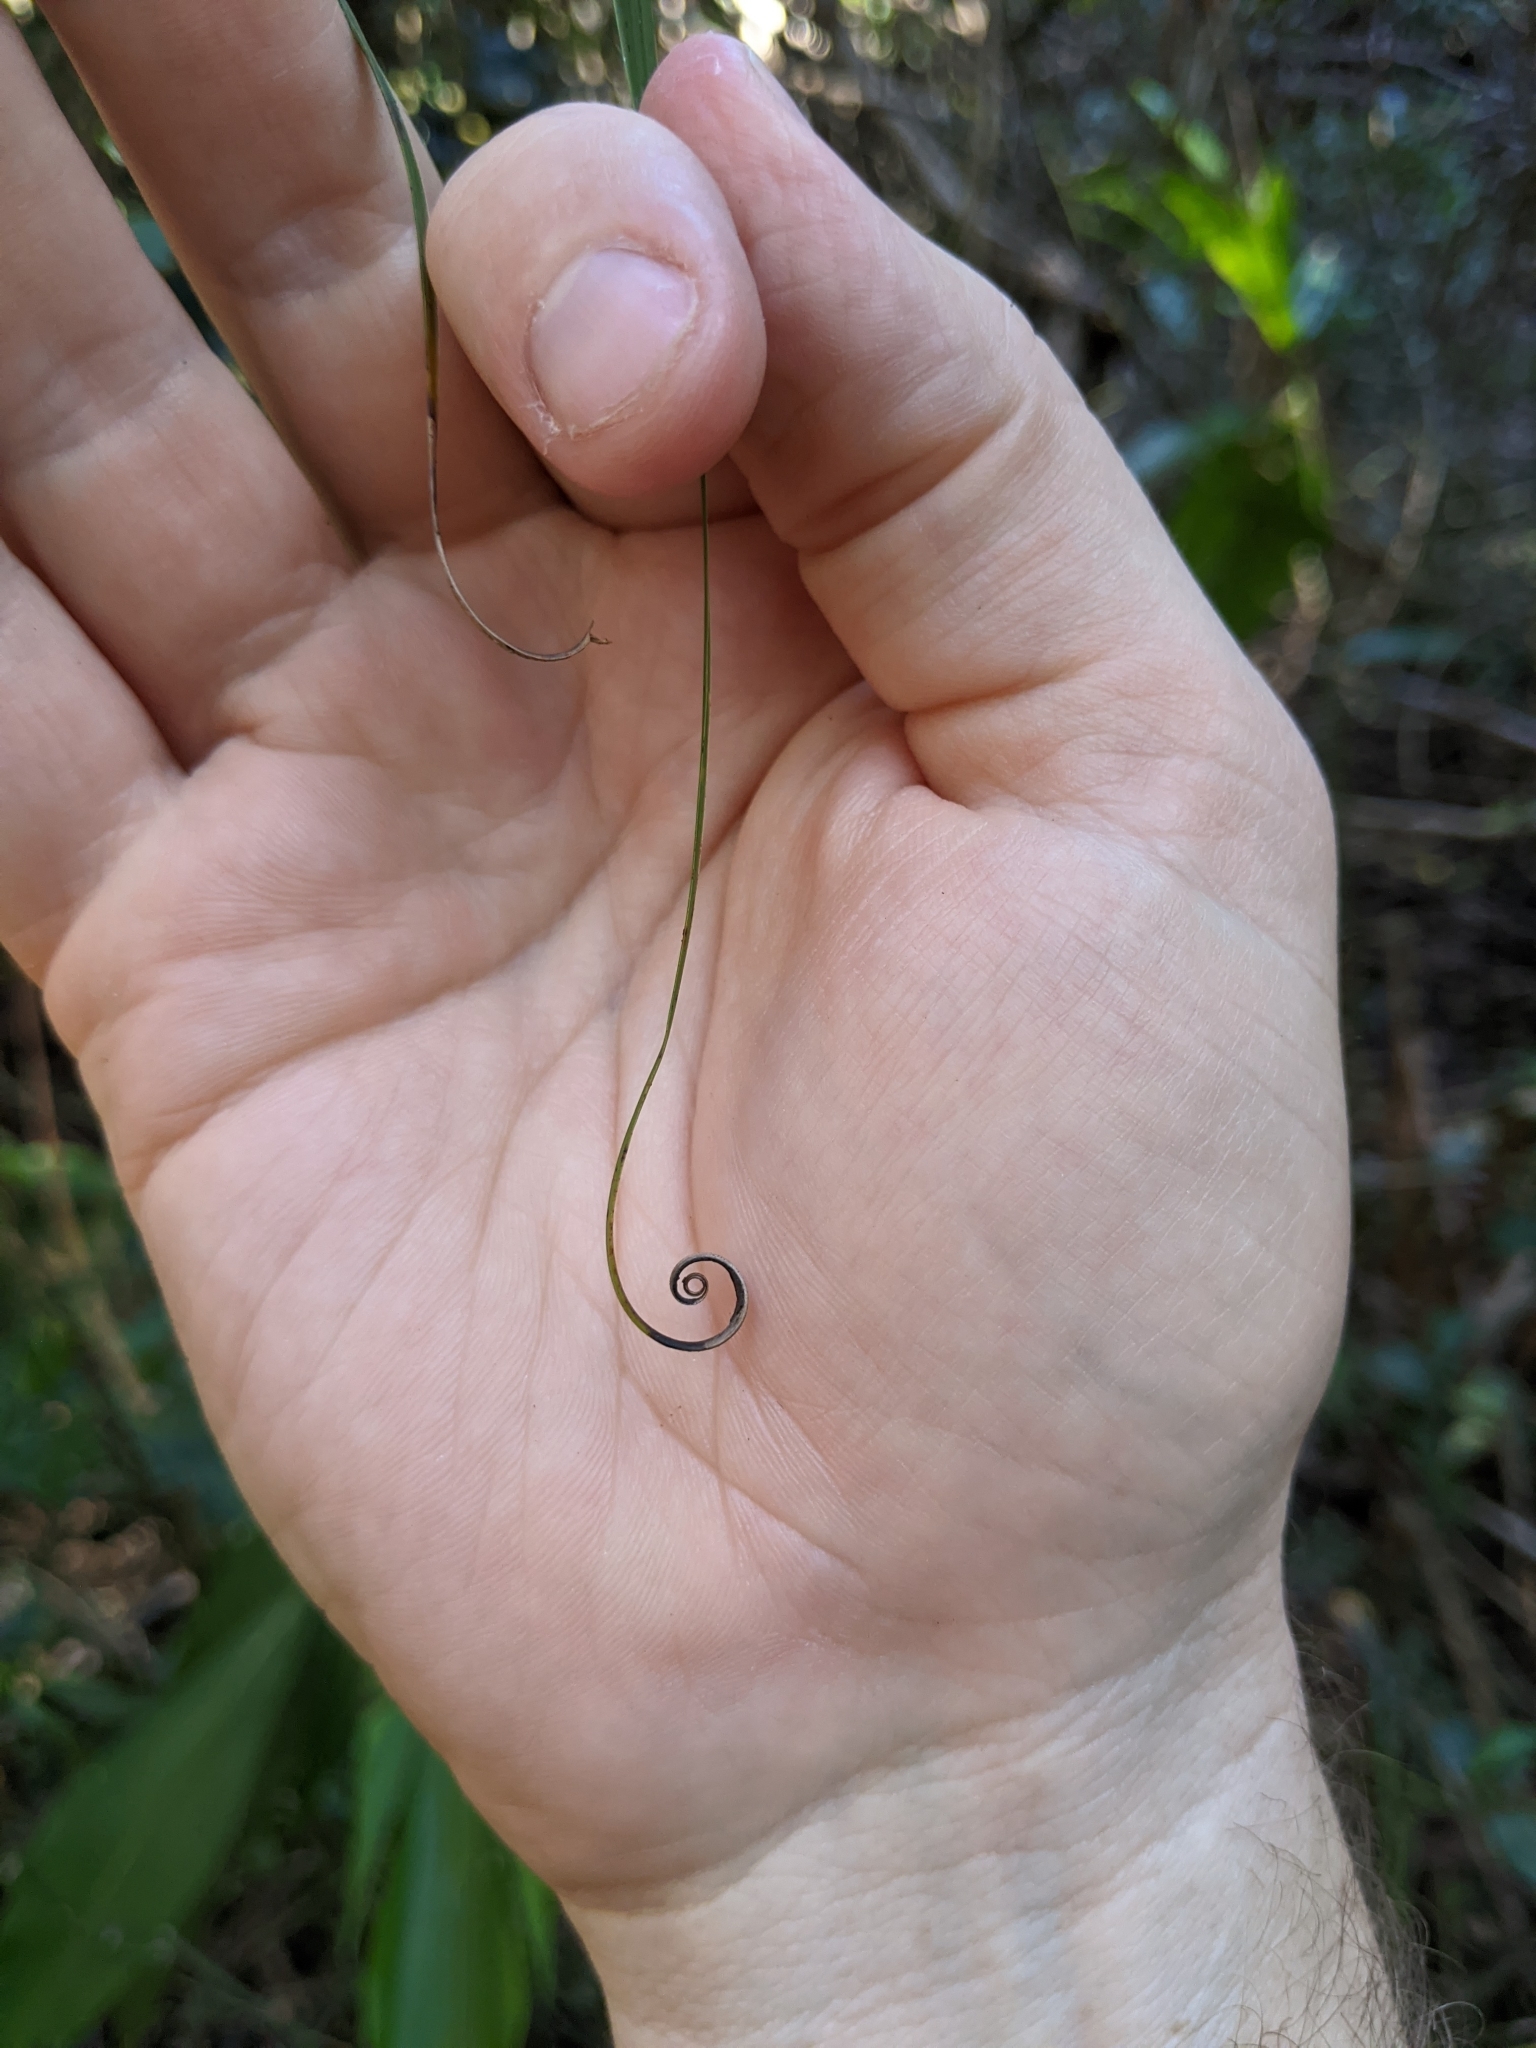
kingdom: Plantae
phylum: Tracheophyta
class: Liliopsida
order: Poales
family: Flagellariaceae
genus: Flagellaria
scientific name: Flagellaria indica
